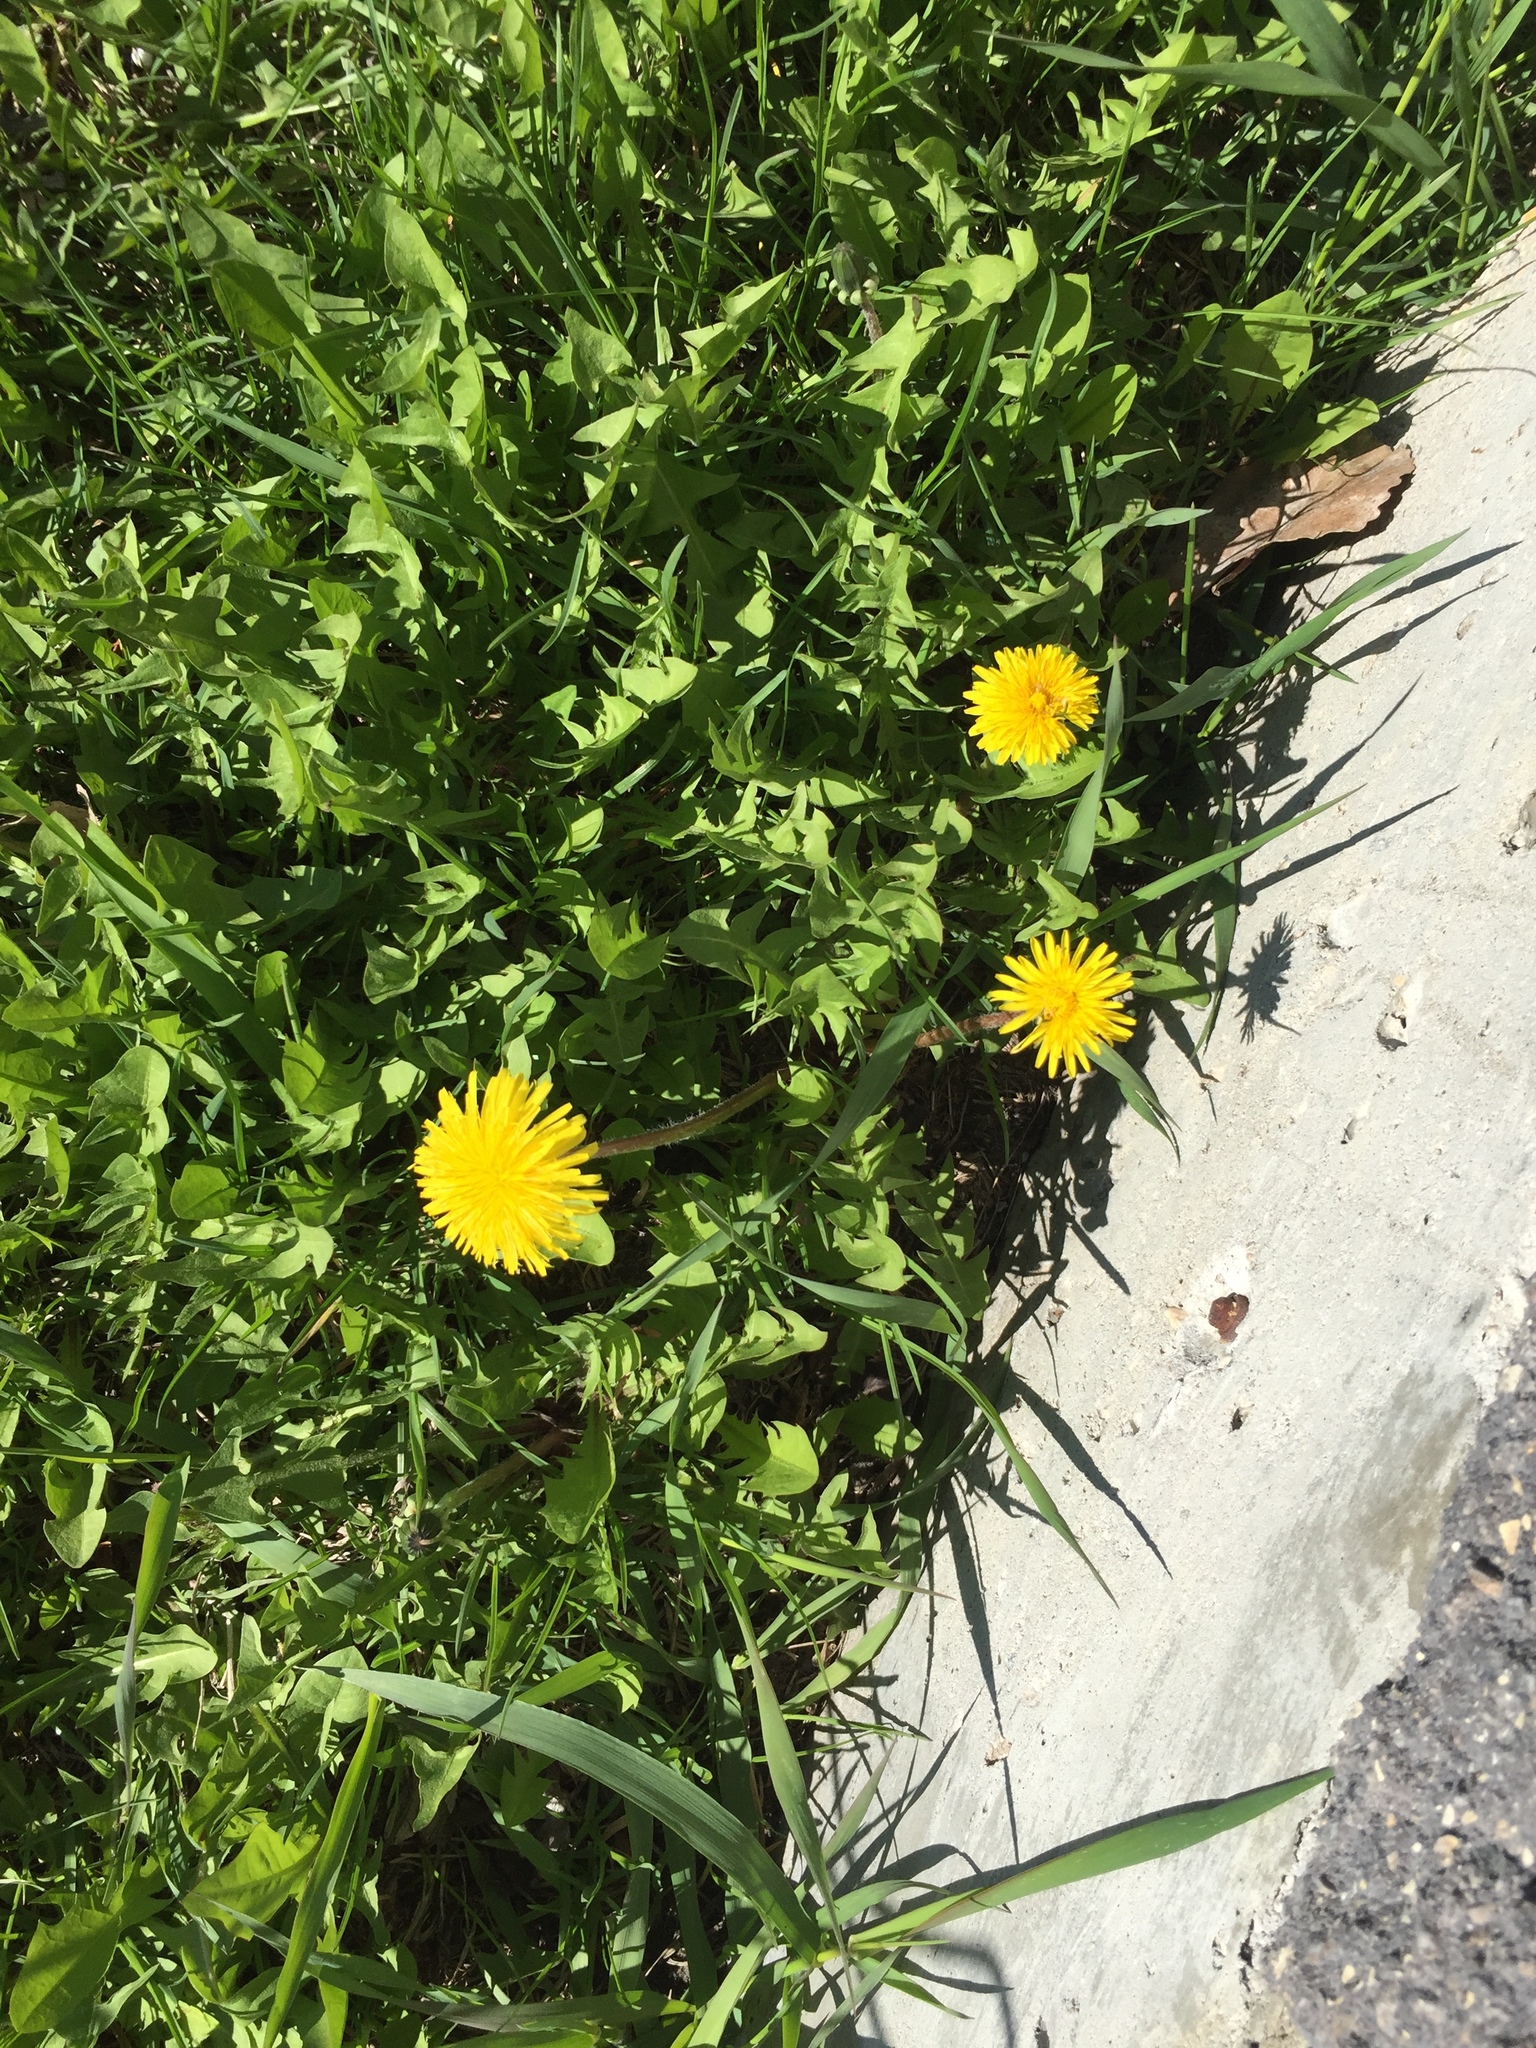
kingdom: Plantae
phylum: Tracheophyta
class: Magnoliopsida
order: Asterales
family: Asteraceae
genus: Taraxacum
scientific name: Taraxacum officinale
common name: Common dandelion
